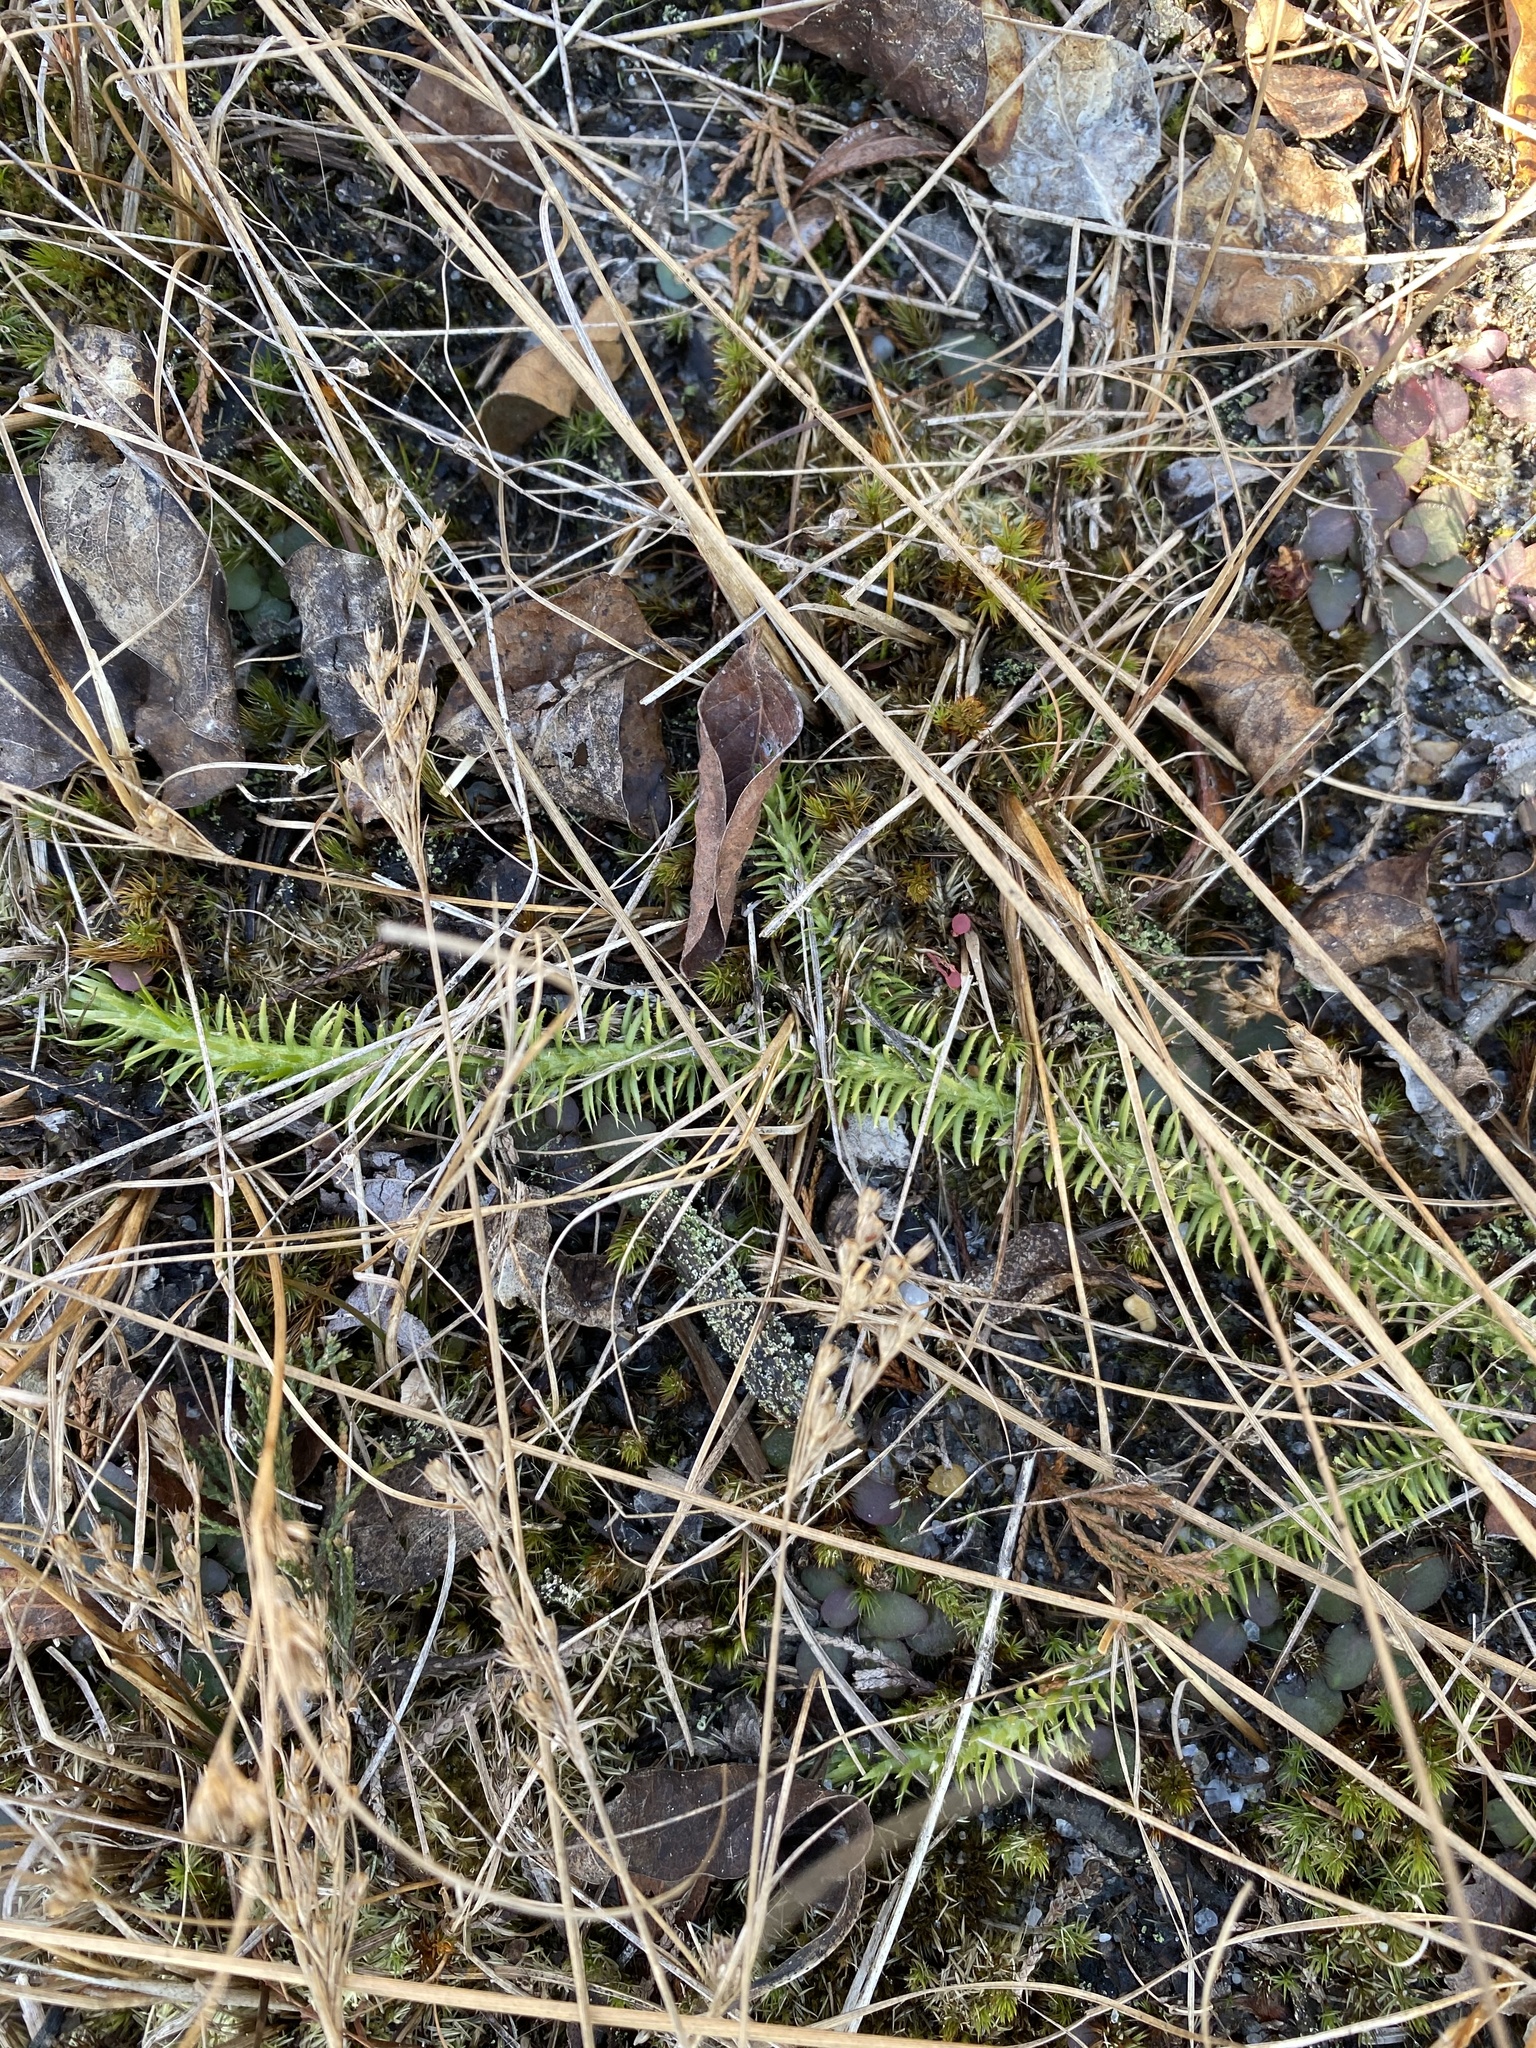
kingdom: Plantae
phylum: Tracheophyta
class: Lycopodiopsida
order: Lycopodiales
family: Lycopodiaceae
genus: Lycopodiella
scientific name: Lycopodiella alopecuroides
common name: Foxtail clubmoss
